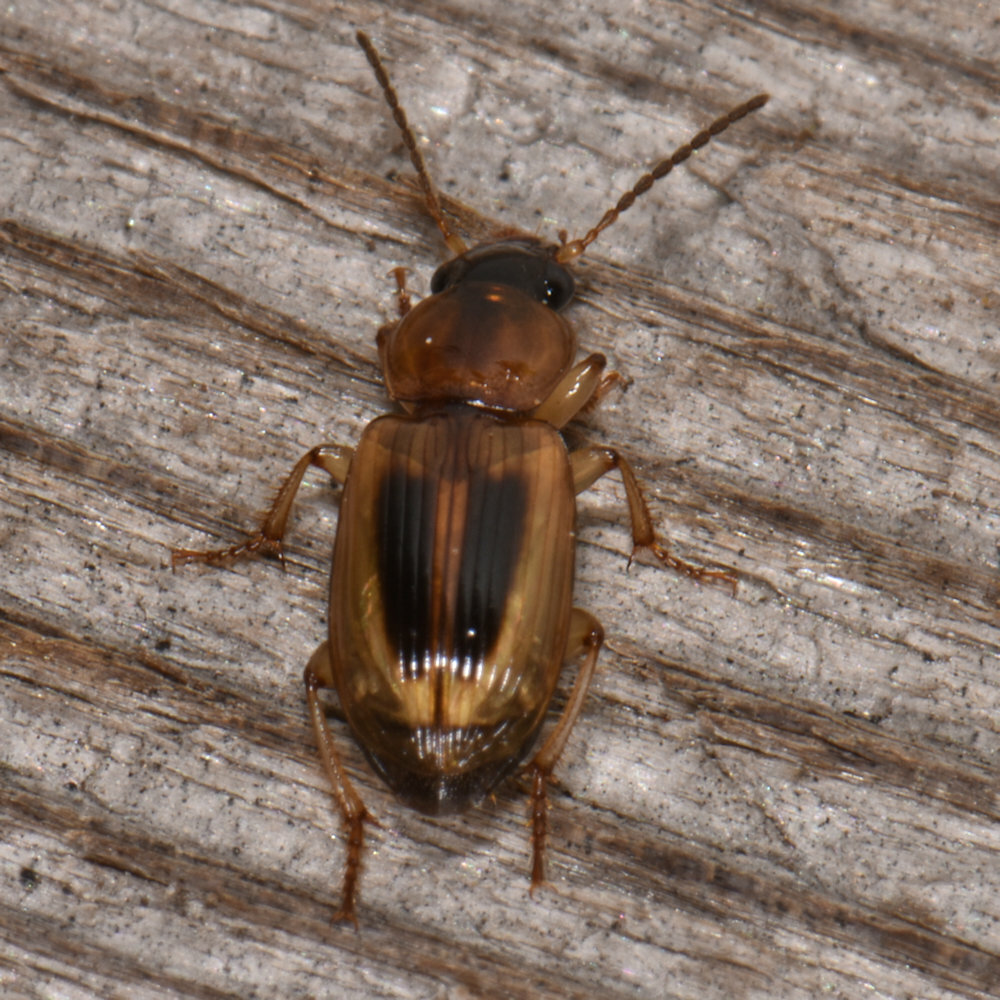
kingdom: Animalia
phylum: Arthropoda
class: Insecta
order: Coleoptera
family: Carabidae
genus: Stenolophus
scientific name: Stenolophus lecontei
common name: Leconte's seedcorn beetle
